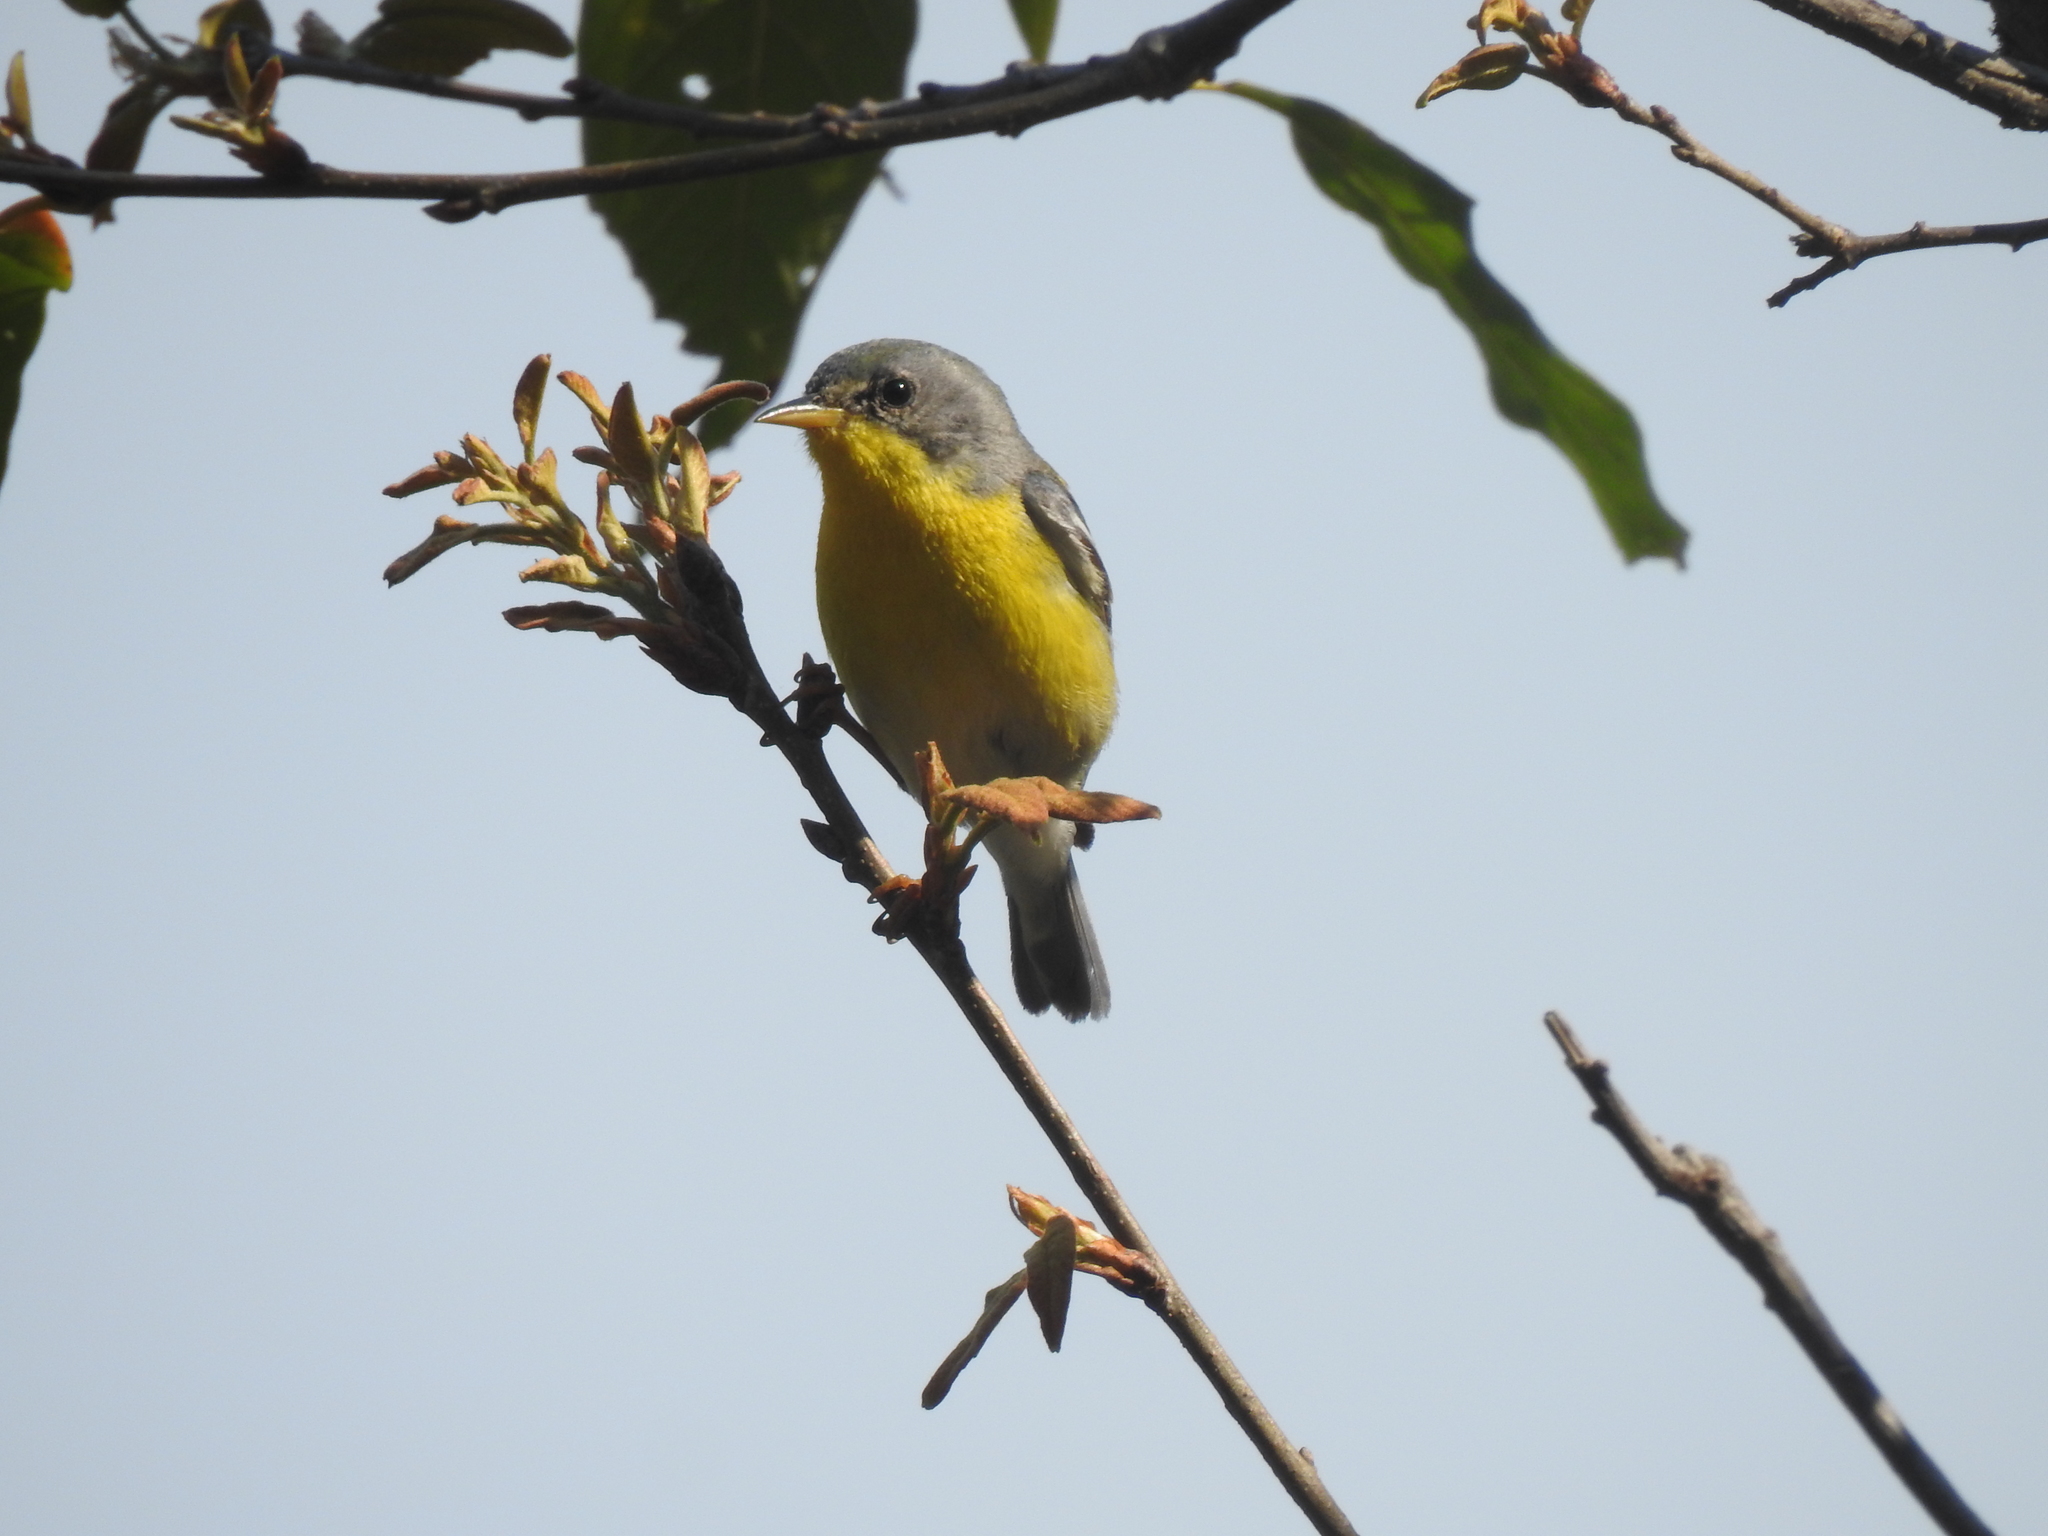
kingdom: Animalia
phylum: Chordata
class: Aves
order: Passeriformes
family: Parulidae
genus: Setophaga
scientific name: Setophaga pitiayumi
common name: Tropical parula
